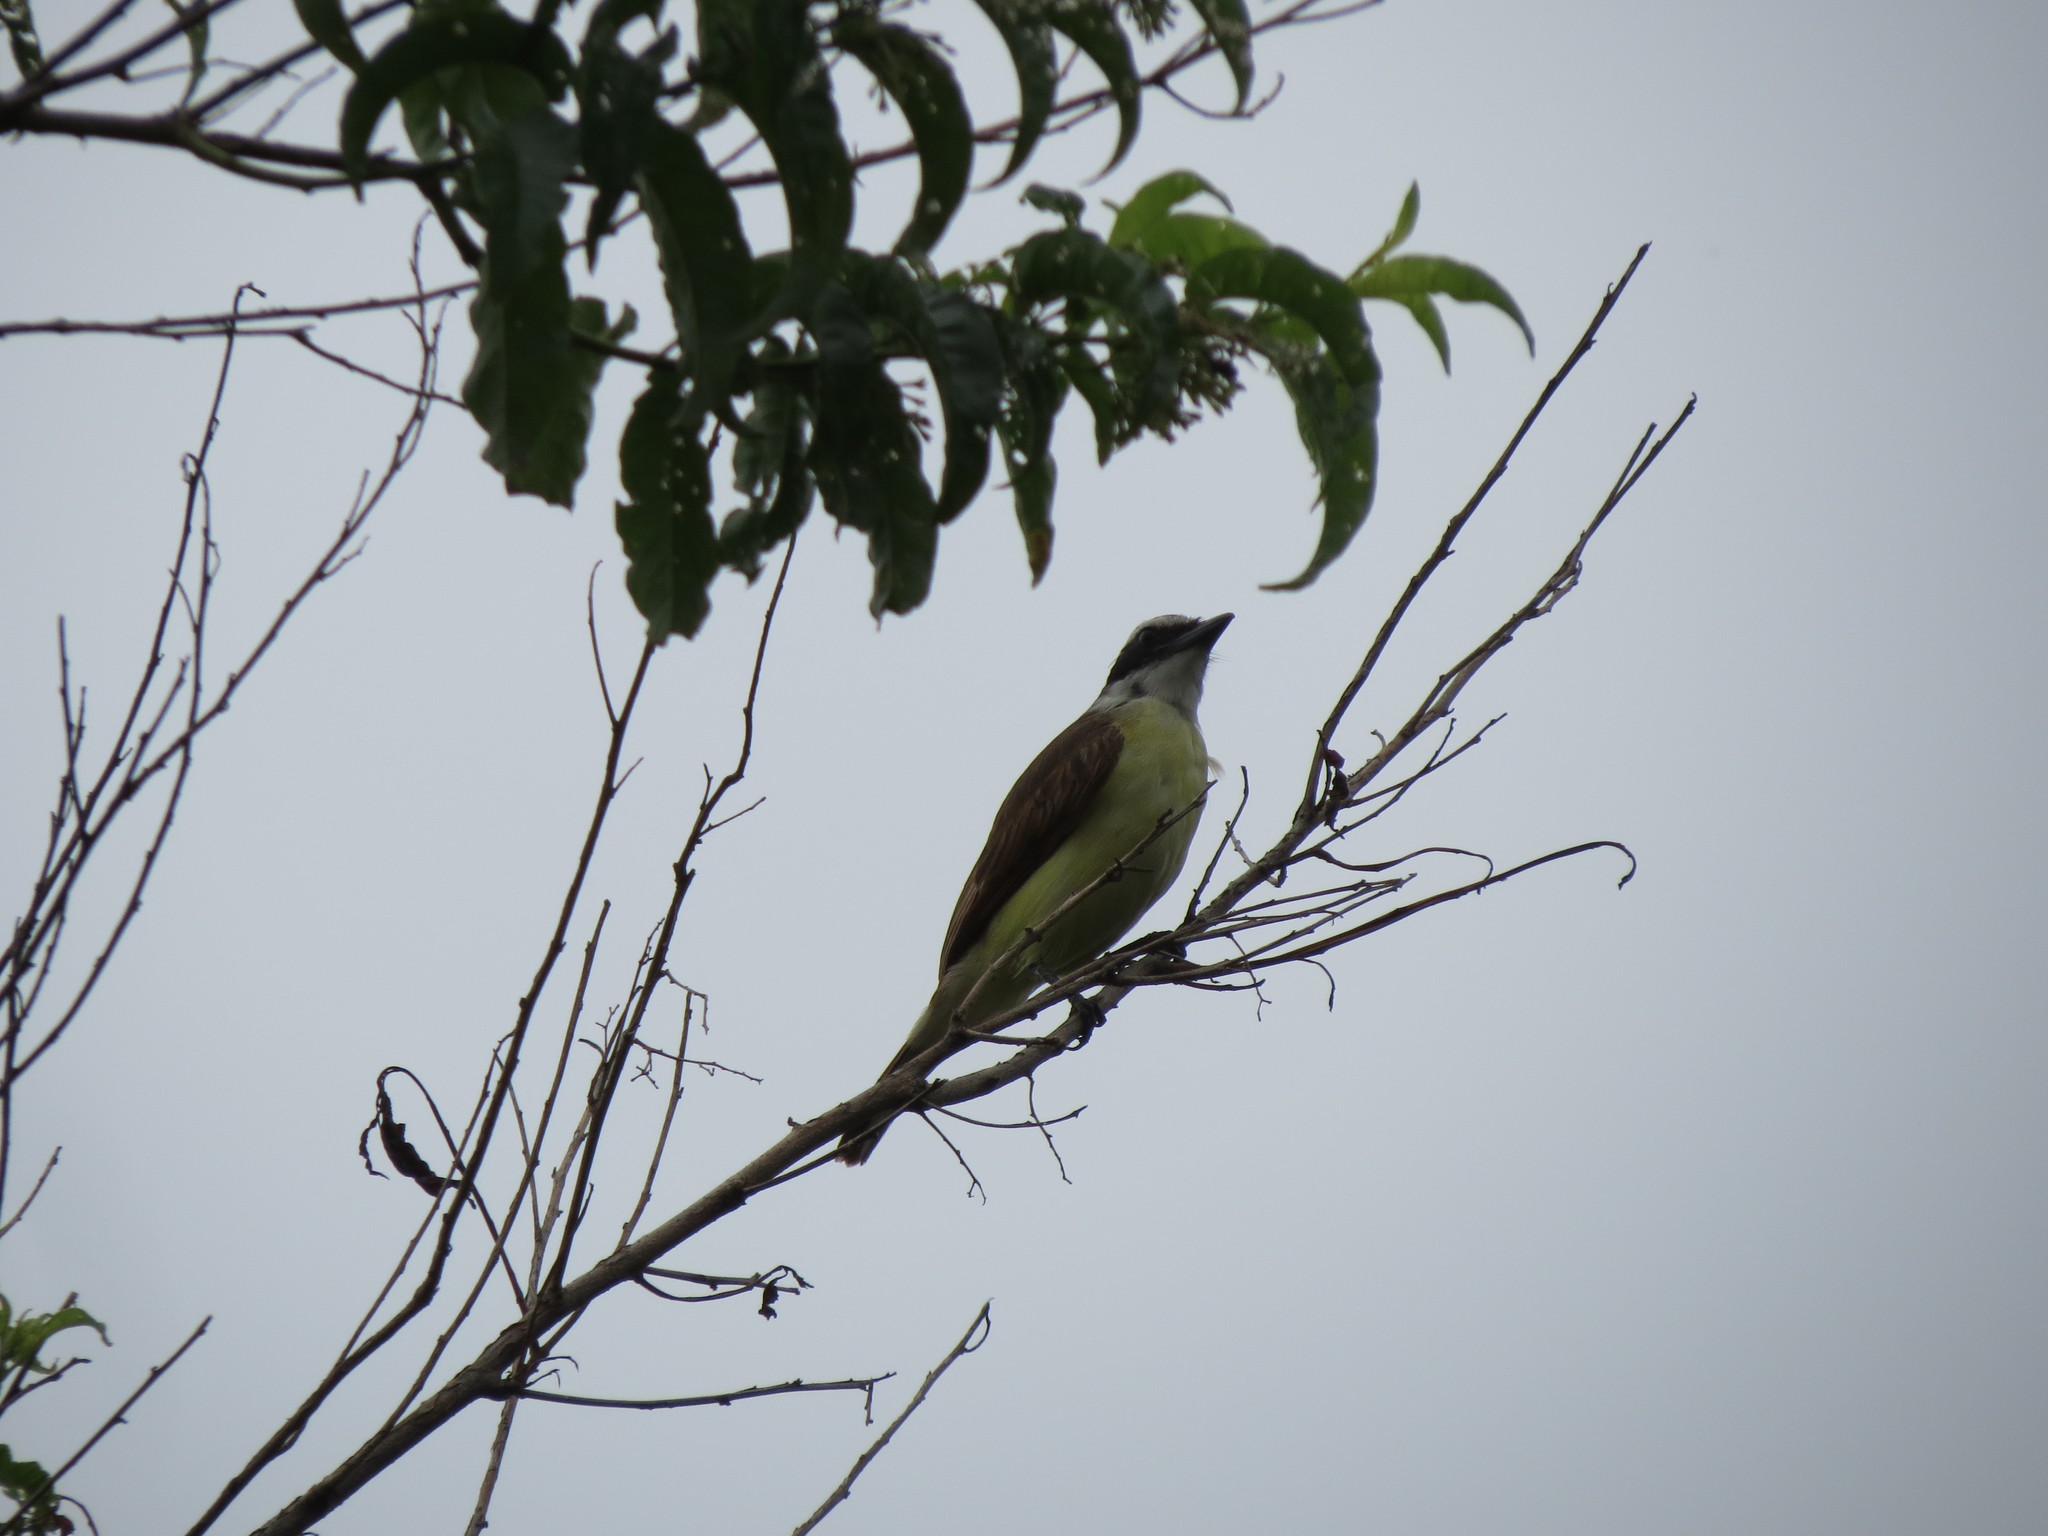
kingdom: Animalia
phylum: Chordata
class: Aves
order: Passeriformes
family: Tyrannidae
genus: Pitangus
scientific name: Pitangus sulphuratus
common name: Great kiskadee
